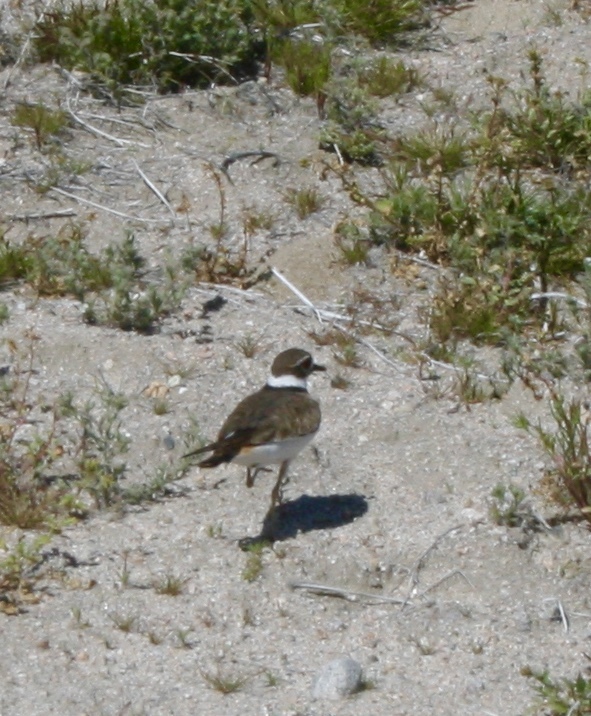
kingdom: Animalia
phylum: Chordata
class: Aves
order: Charadriiformes
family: Charadriidae
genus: Charadrius
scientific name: Charadrius vociferus
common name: Killdeer
